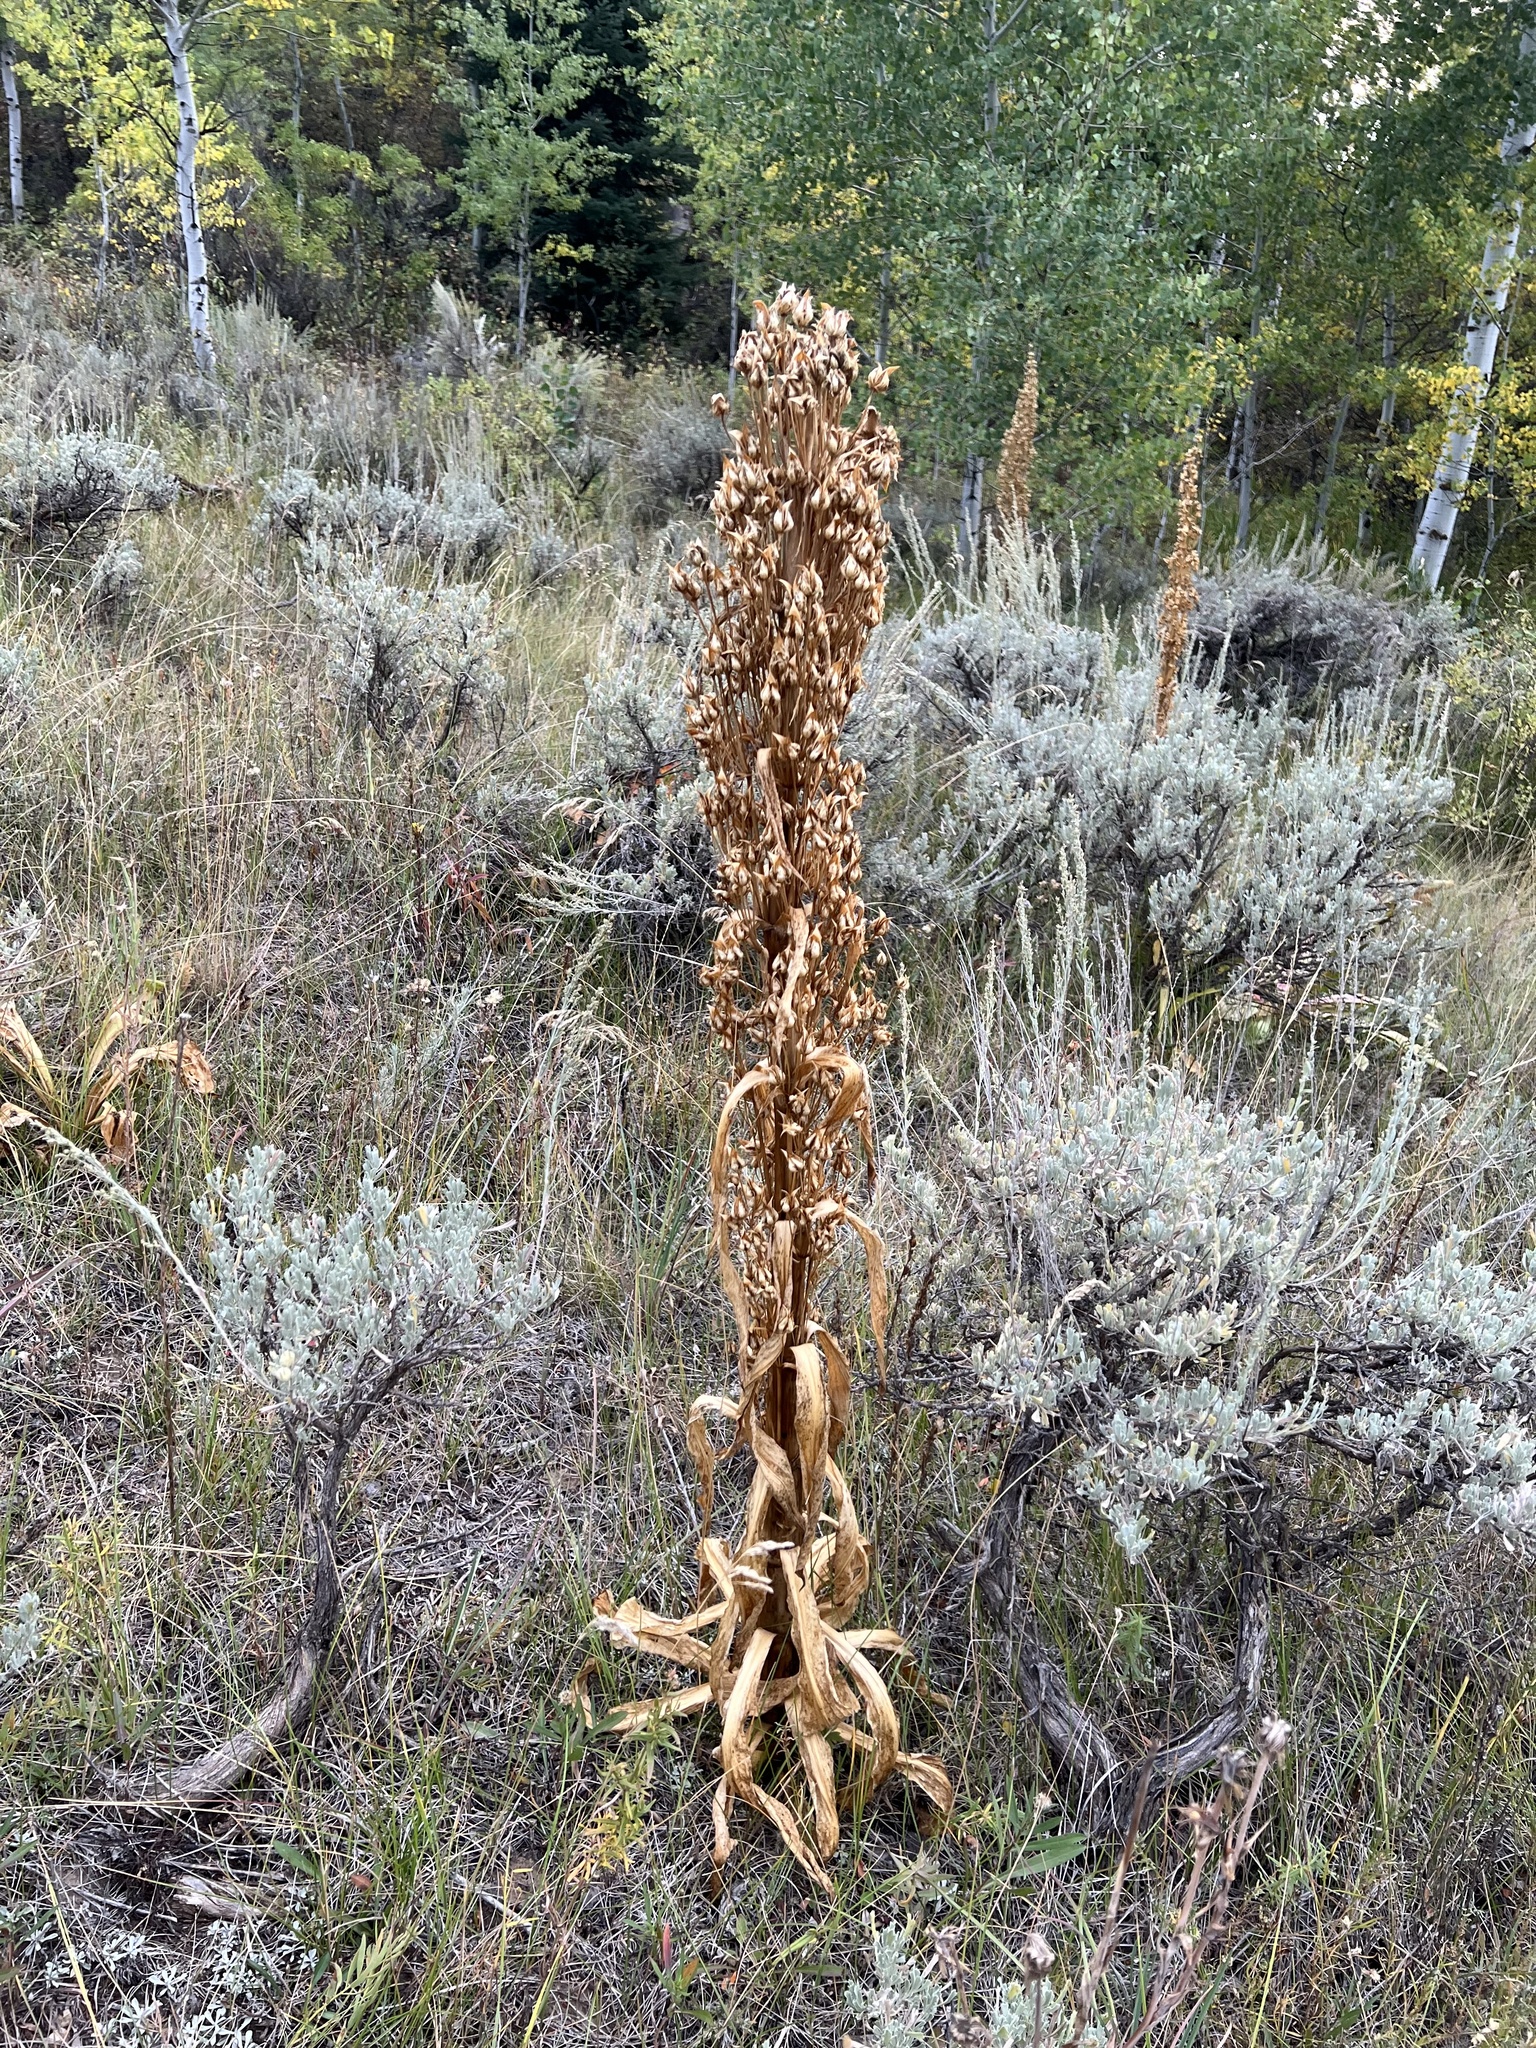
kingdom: Plantae
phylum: Tracheophyta
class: Magnoliopsida
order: Gentianales
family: Gentianaceae
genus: Frasera
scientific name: Frasera speciosa
